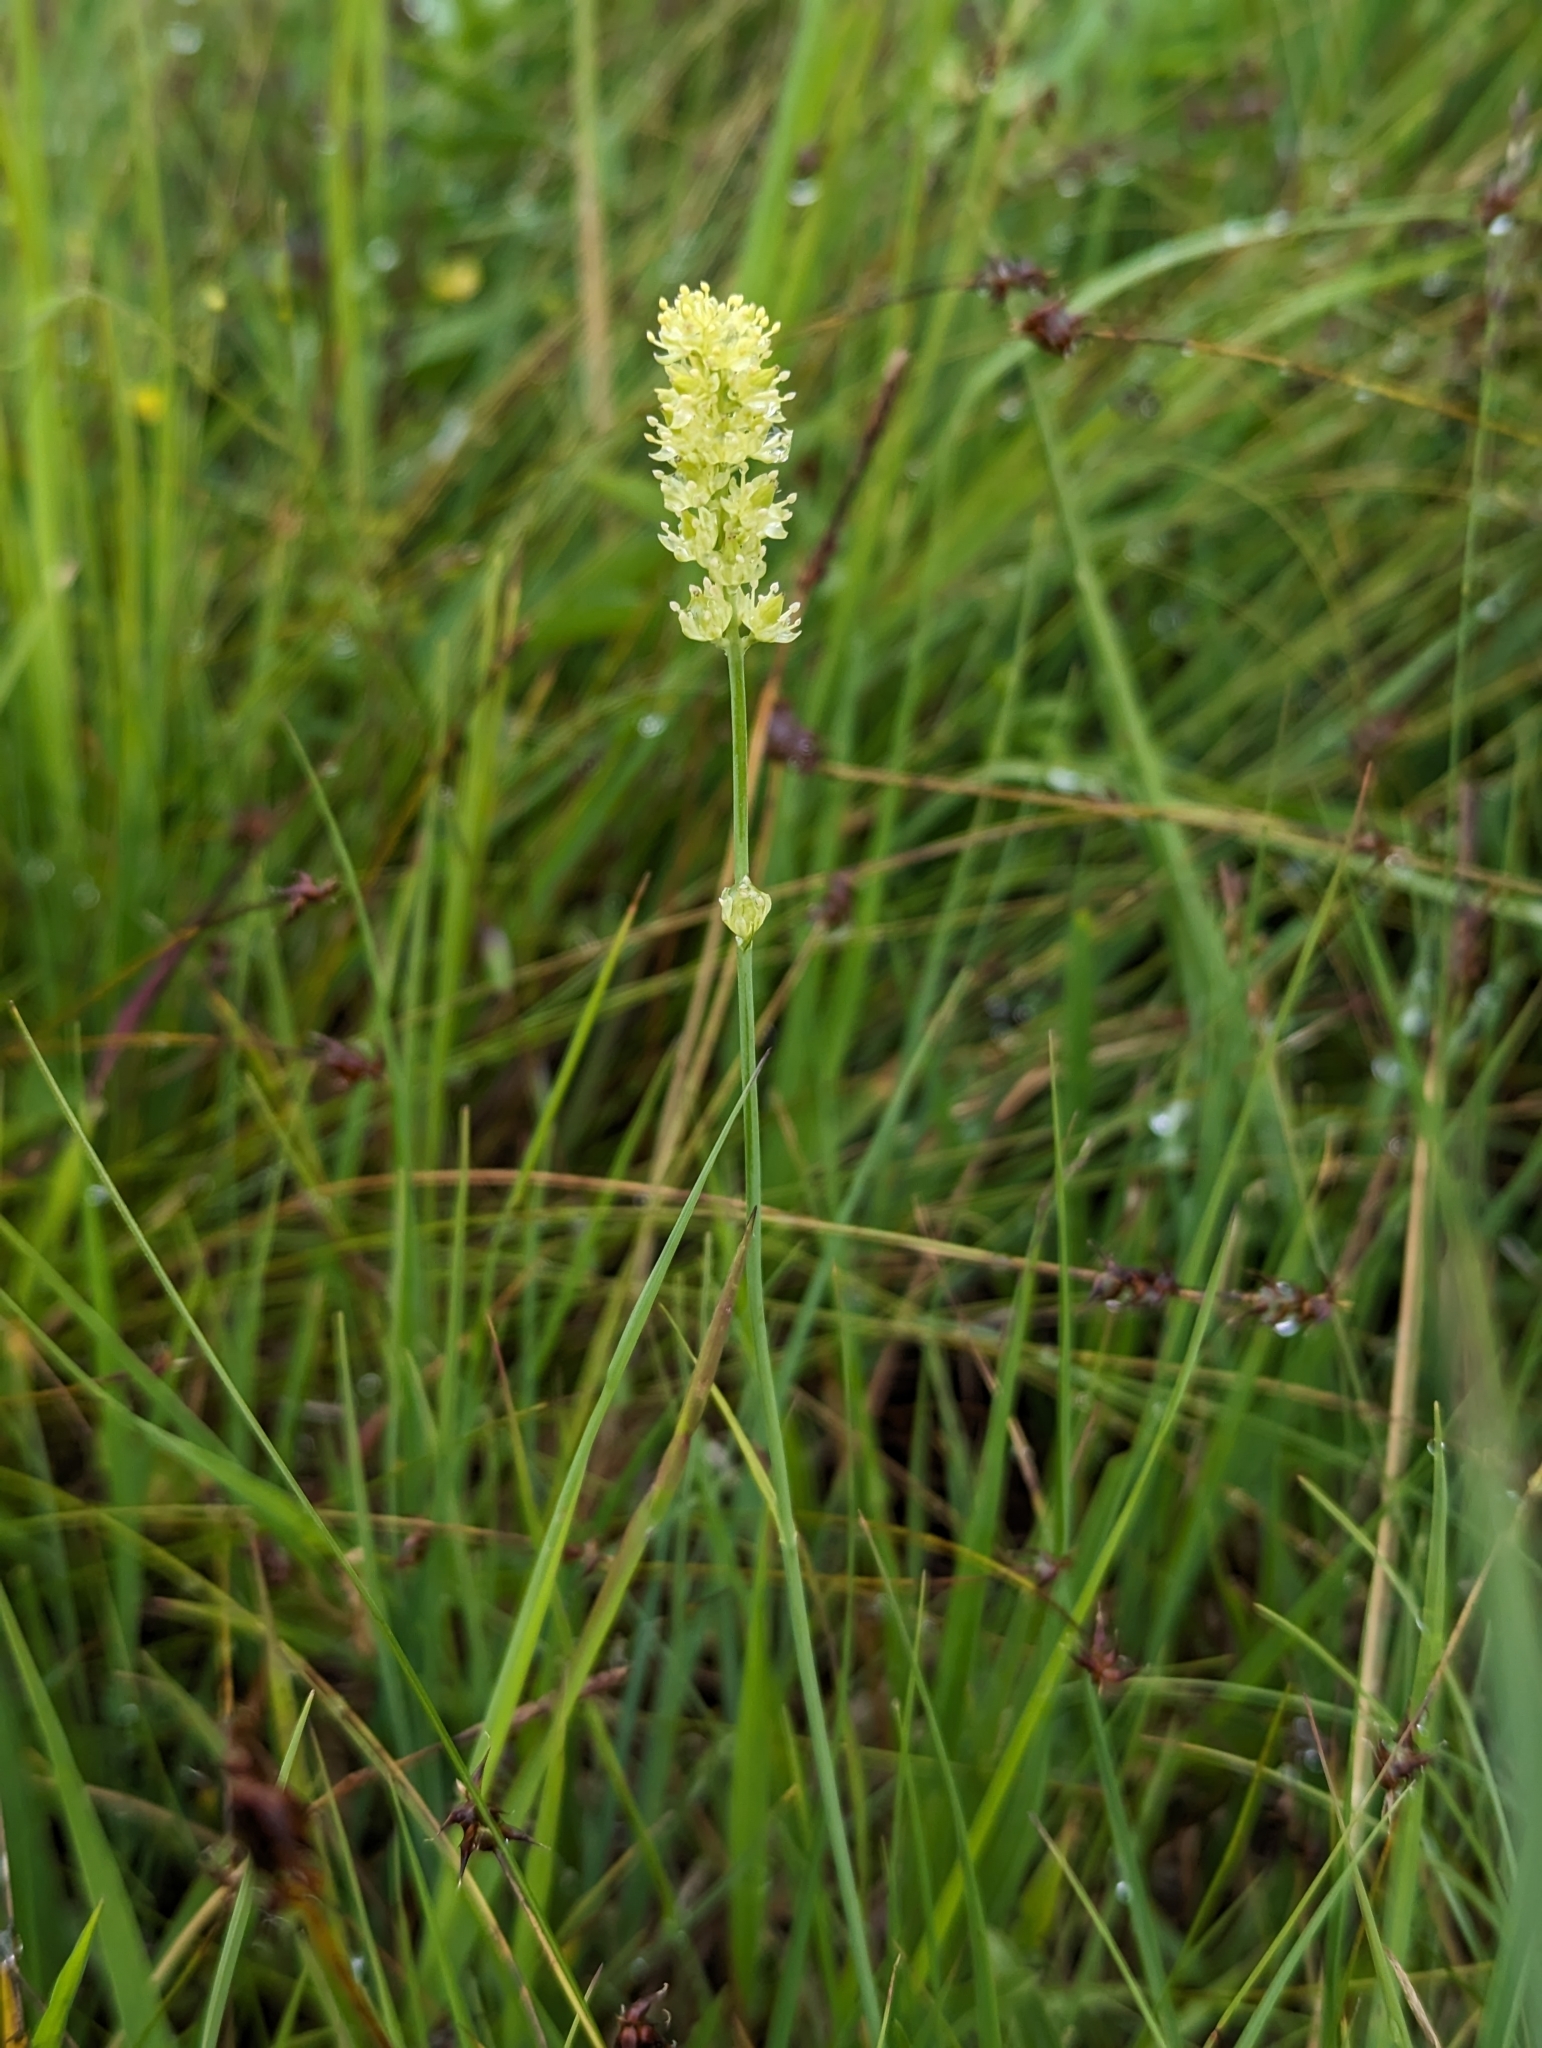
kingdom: Plantae
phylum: Tracheophyta
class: Liliopsida
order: Alismatales
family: Tofieldiaceae
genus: Tofieldia
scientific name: Tofieldia calyculata
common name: German-asphodel
